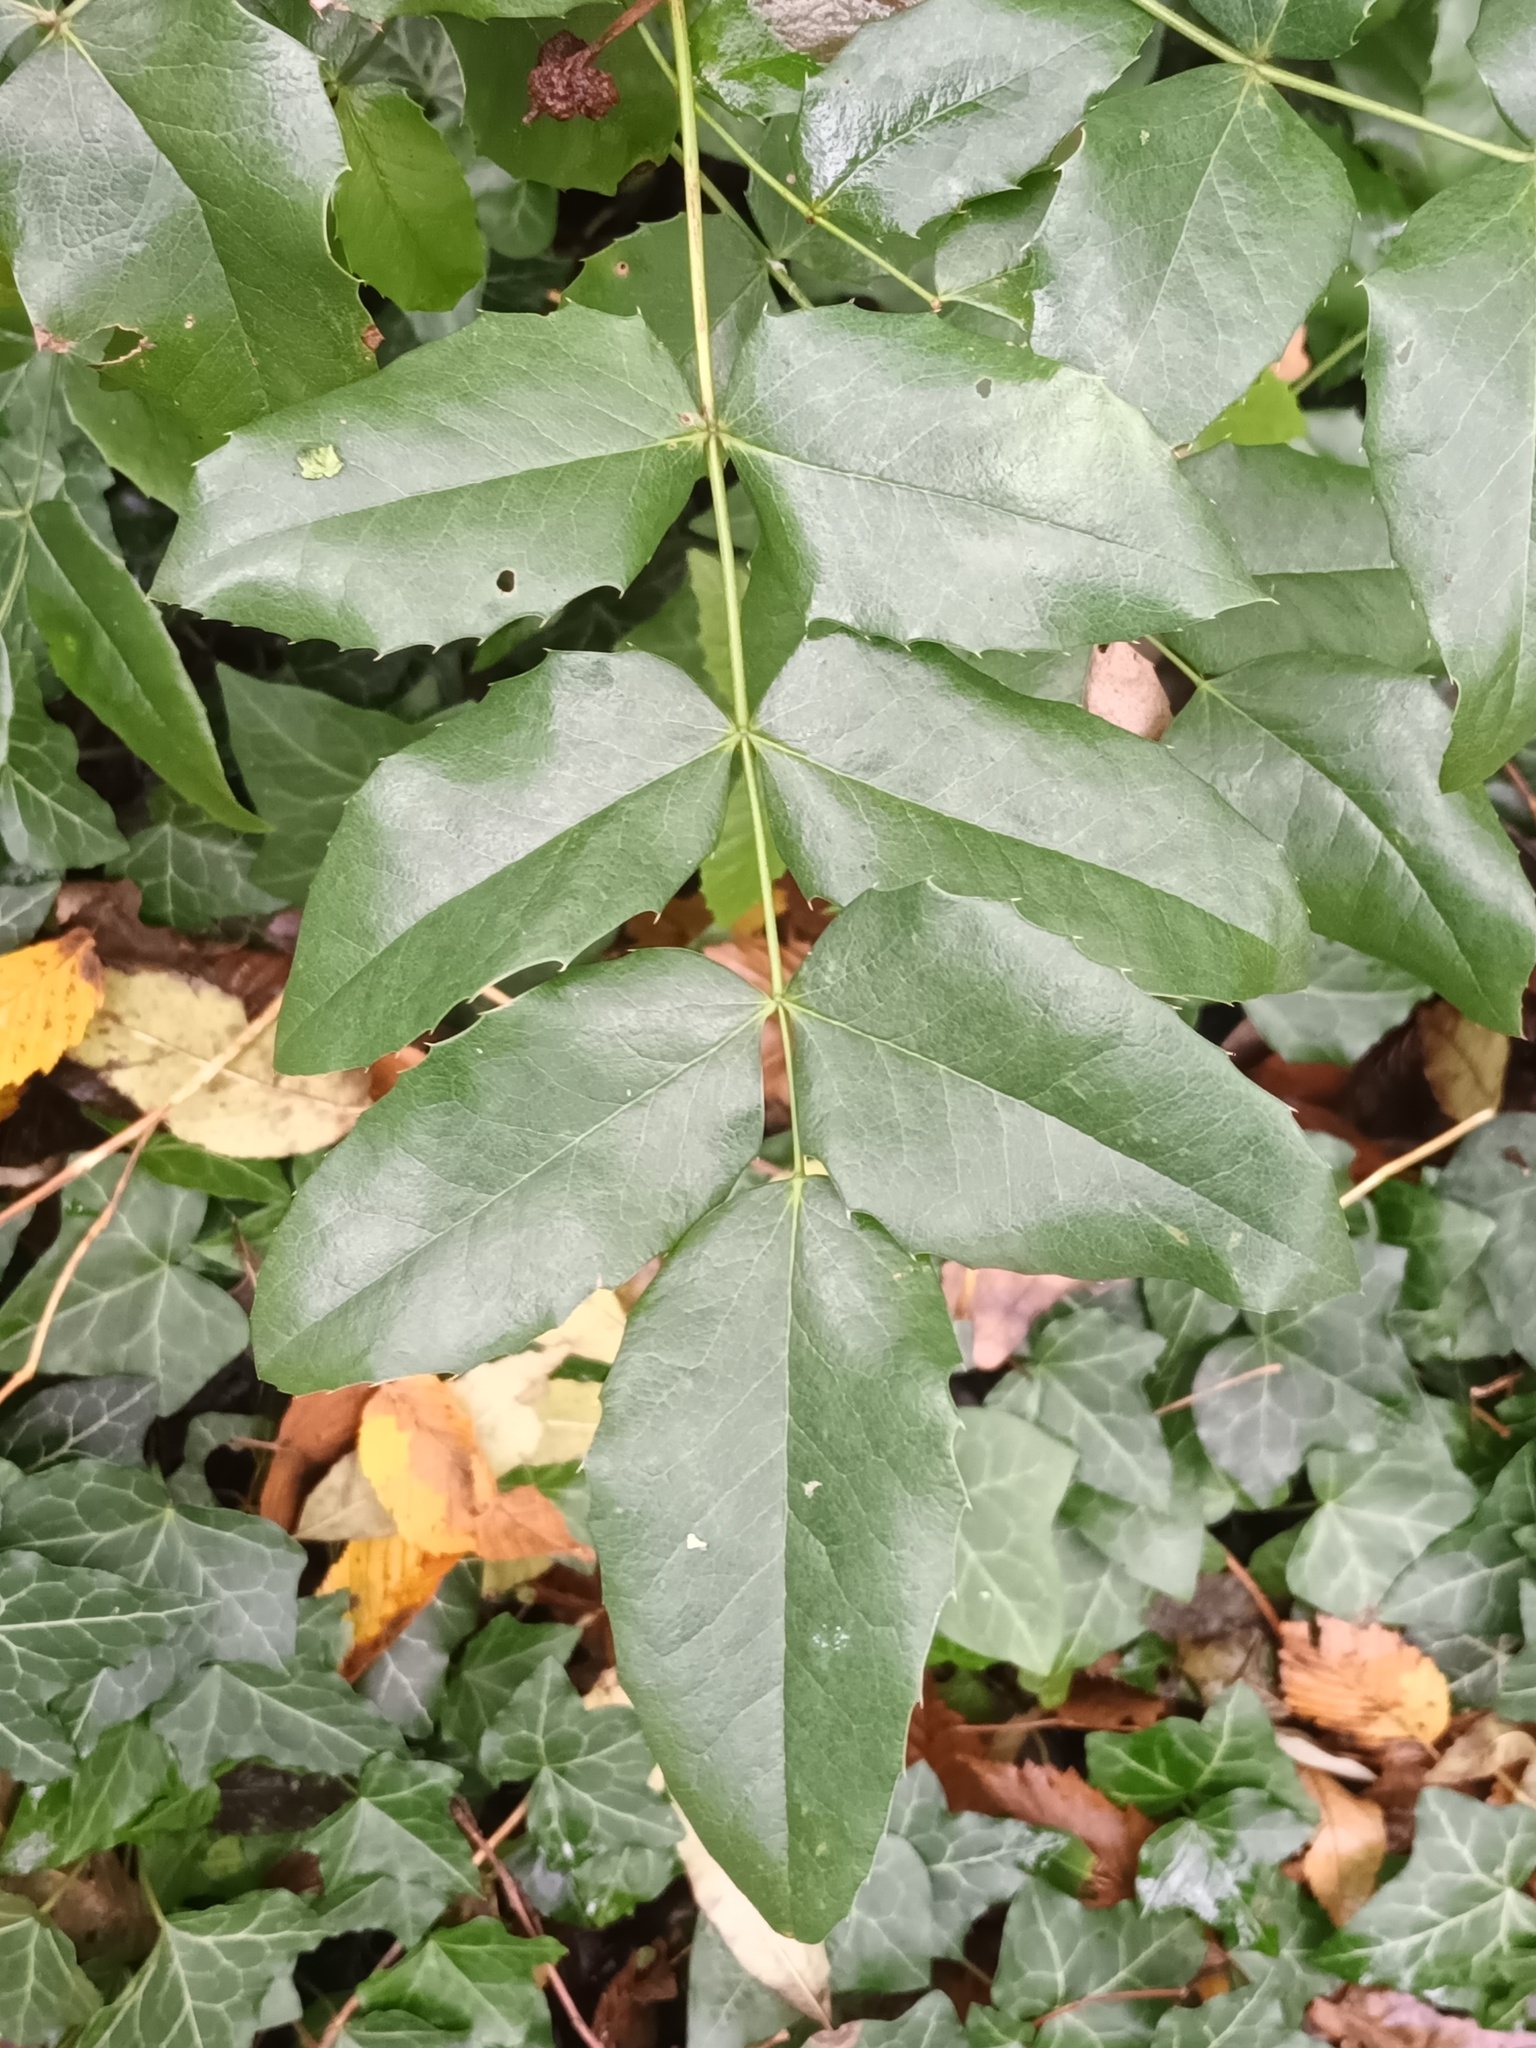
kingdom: Plantae
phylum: Tracheophyta
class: Magnoliopsida
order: Ranunculales
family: Berberidaceae
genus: Mahonia
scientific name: Mahonia aquifolium
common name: Oregon-grape
